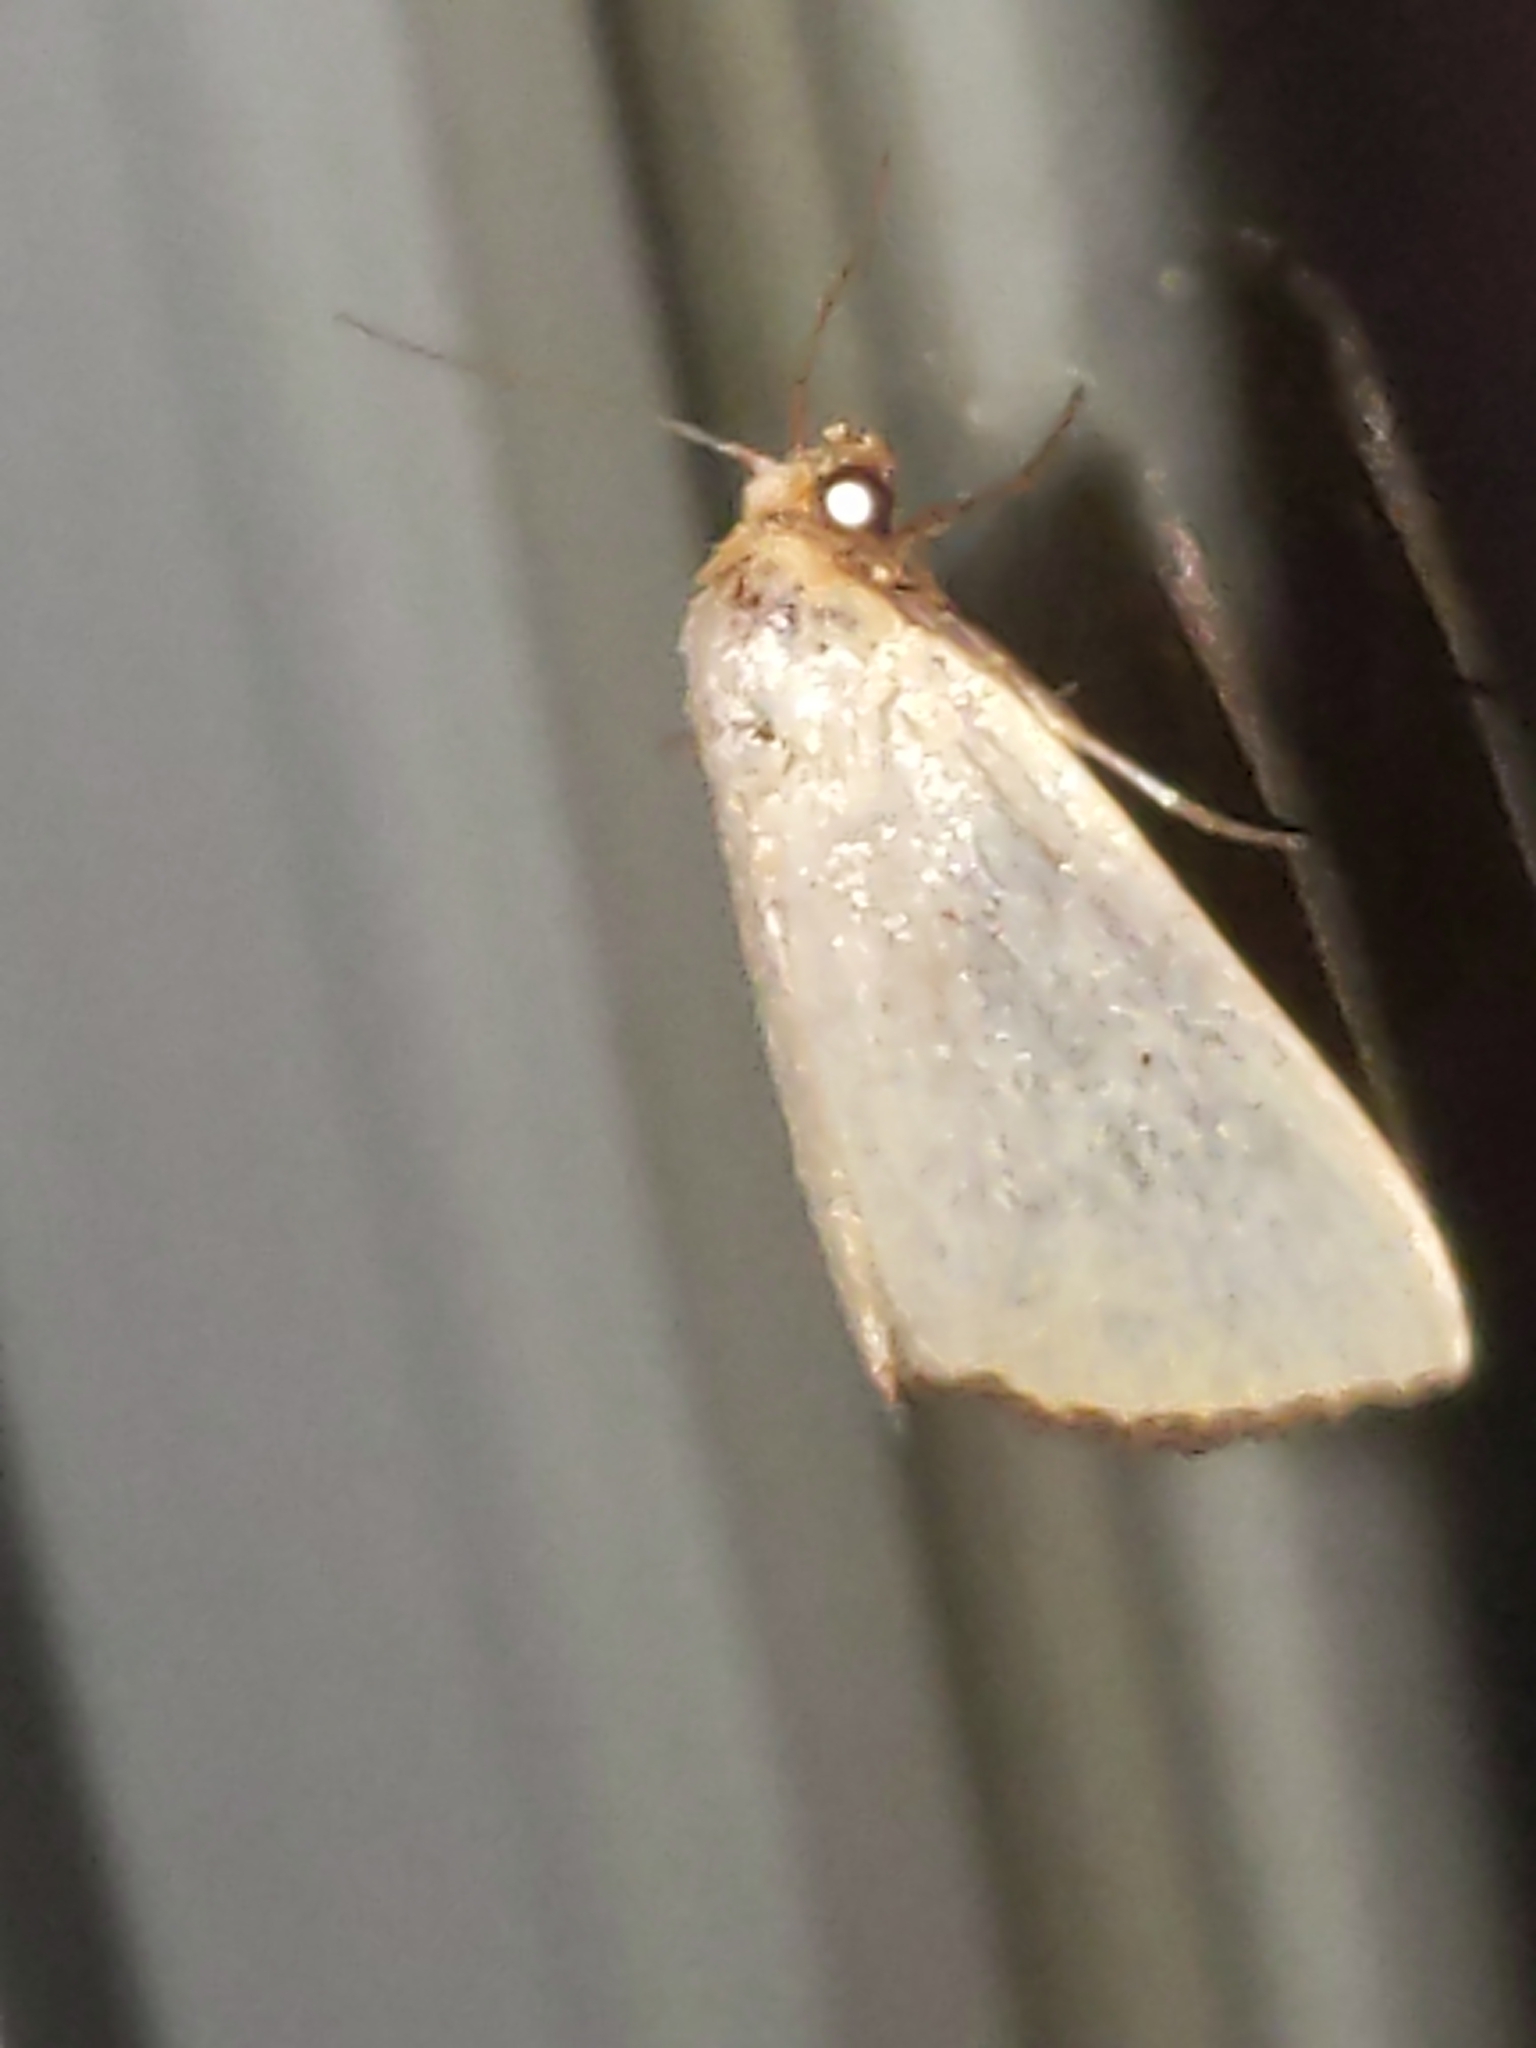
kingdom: Animalia
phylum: Arthropoda
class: Insecta
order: Lepidoptera
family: Noctuidae
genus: Marimatha
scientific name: Marimatha nigrofimbria
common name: Black-bordered lemon moth
